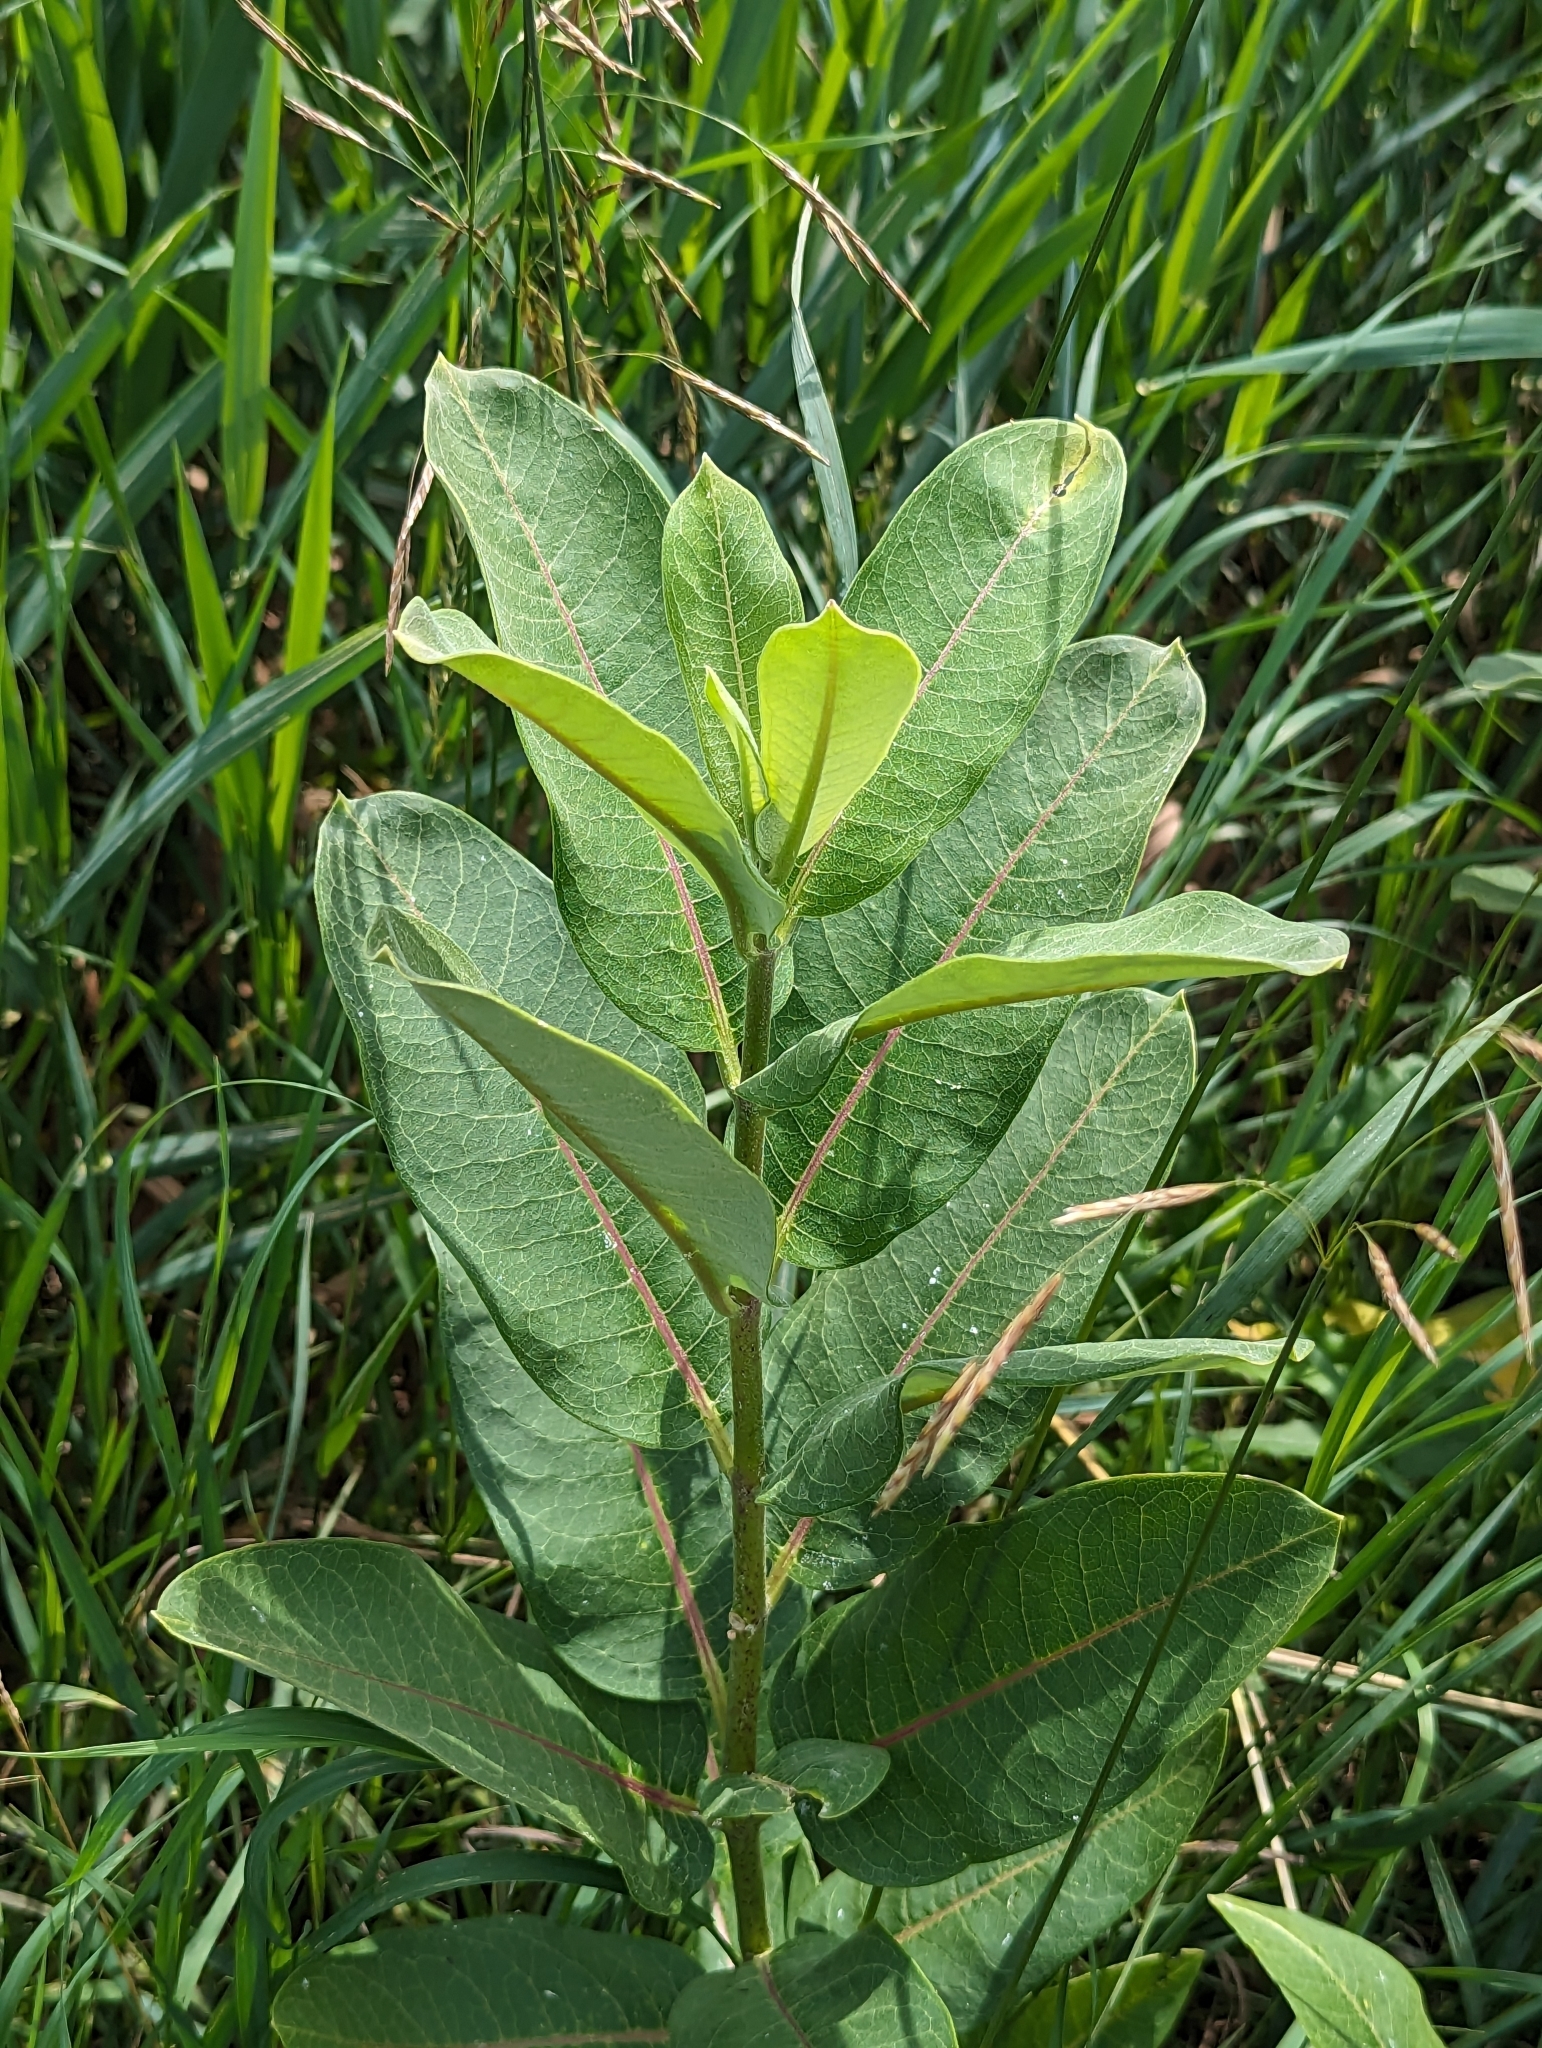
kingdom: Plantae
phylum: Tracheophyta
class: Magnoliopsida
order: Gentianales
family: Apocynaceae
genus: Asclepias
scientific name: Asclepias syriaca
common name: Common milkweed
